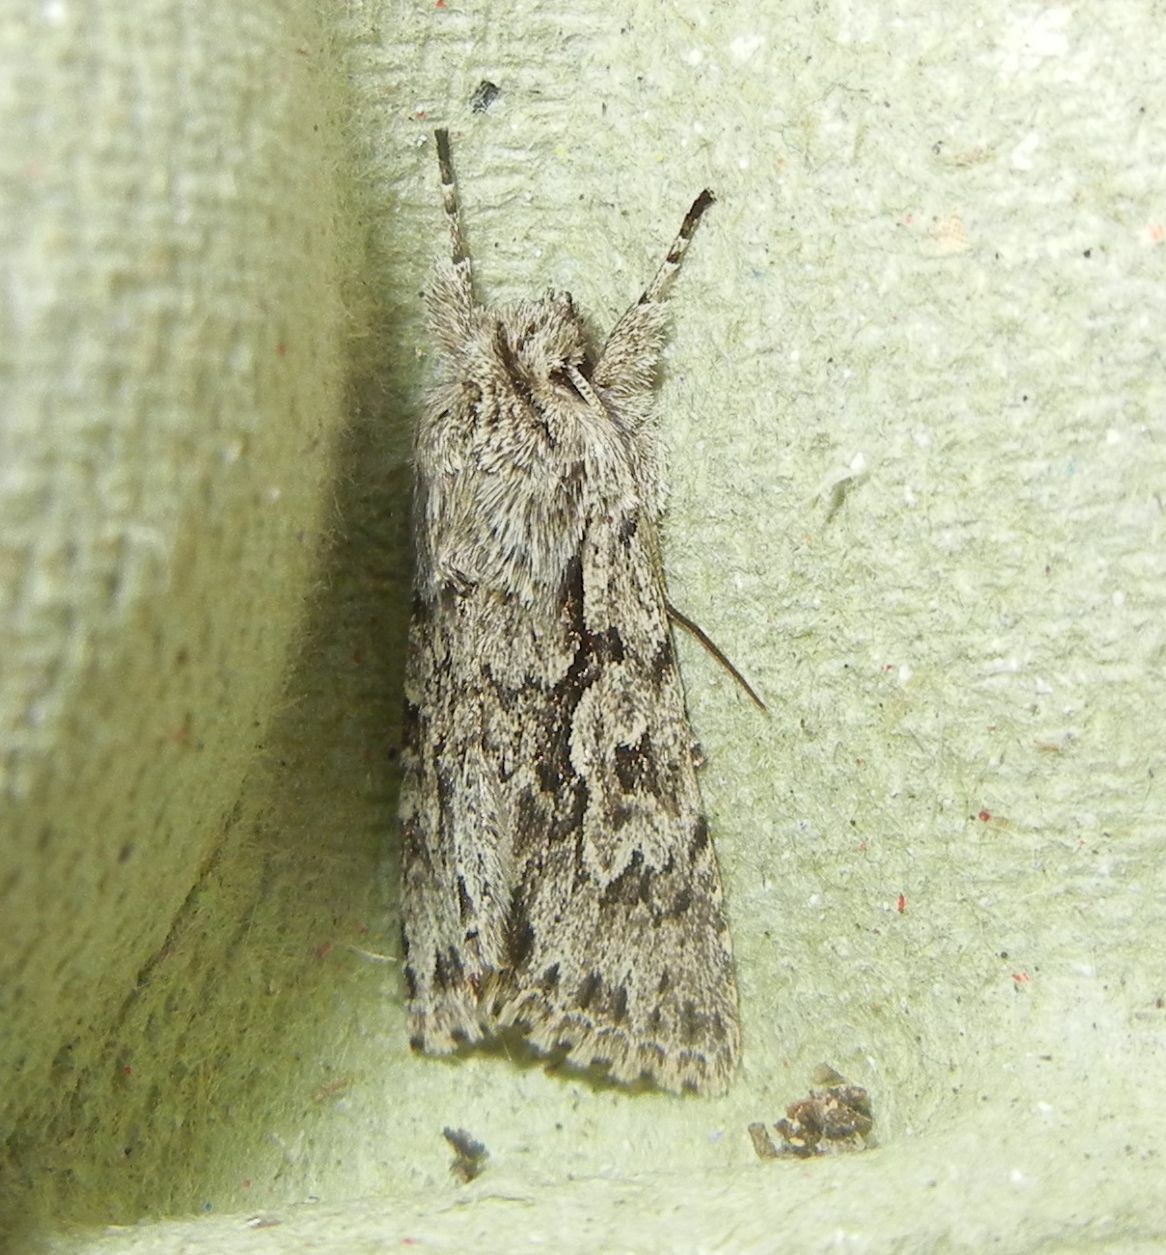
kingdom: Animalia
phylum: Arthropoda
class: Insecta
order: Lepidoptera
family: Noctuidae
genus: Xylocampa
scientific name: Xylocampa areola
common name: Early grey
